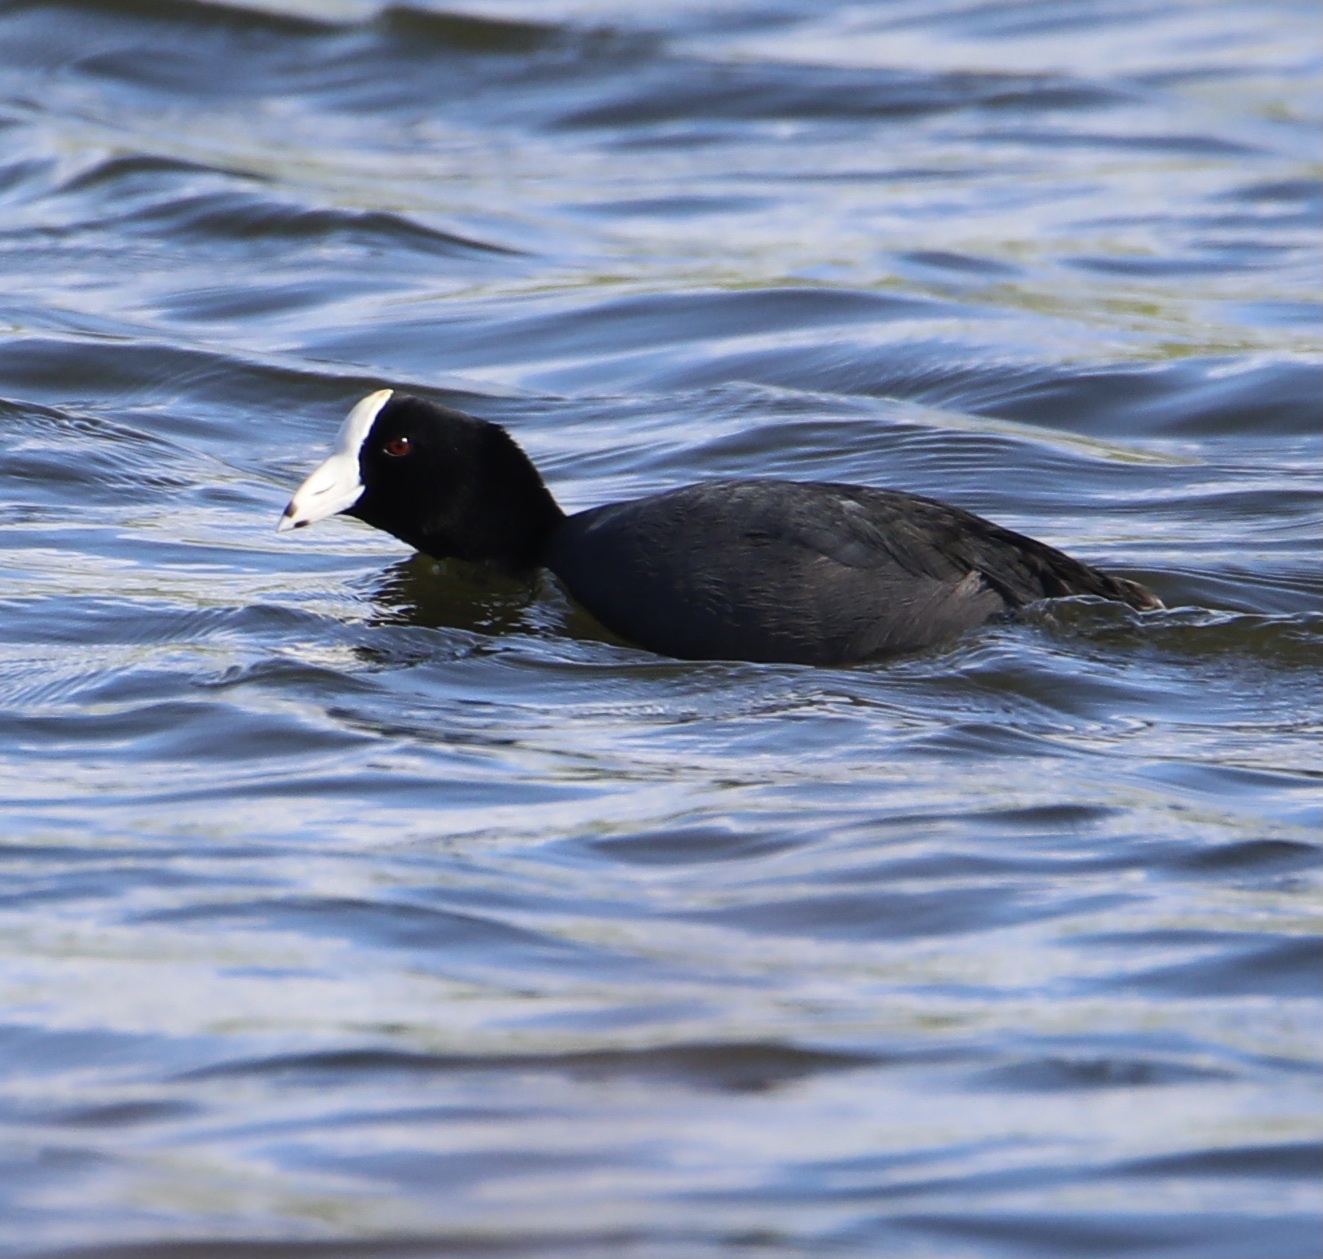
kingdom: Animalia
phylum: Chordata
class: Aves
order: Gruiformes
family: Rallidae
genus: Fulica
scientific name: Fulica americana
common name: American coot
